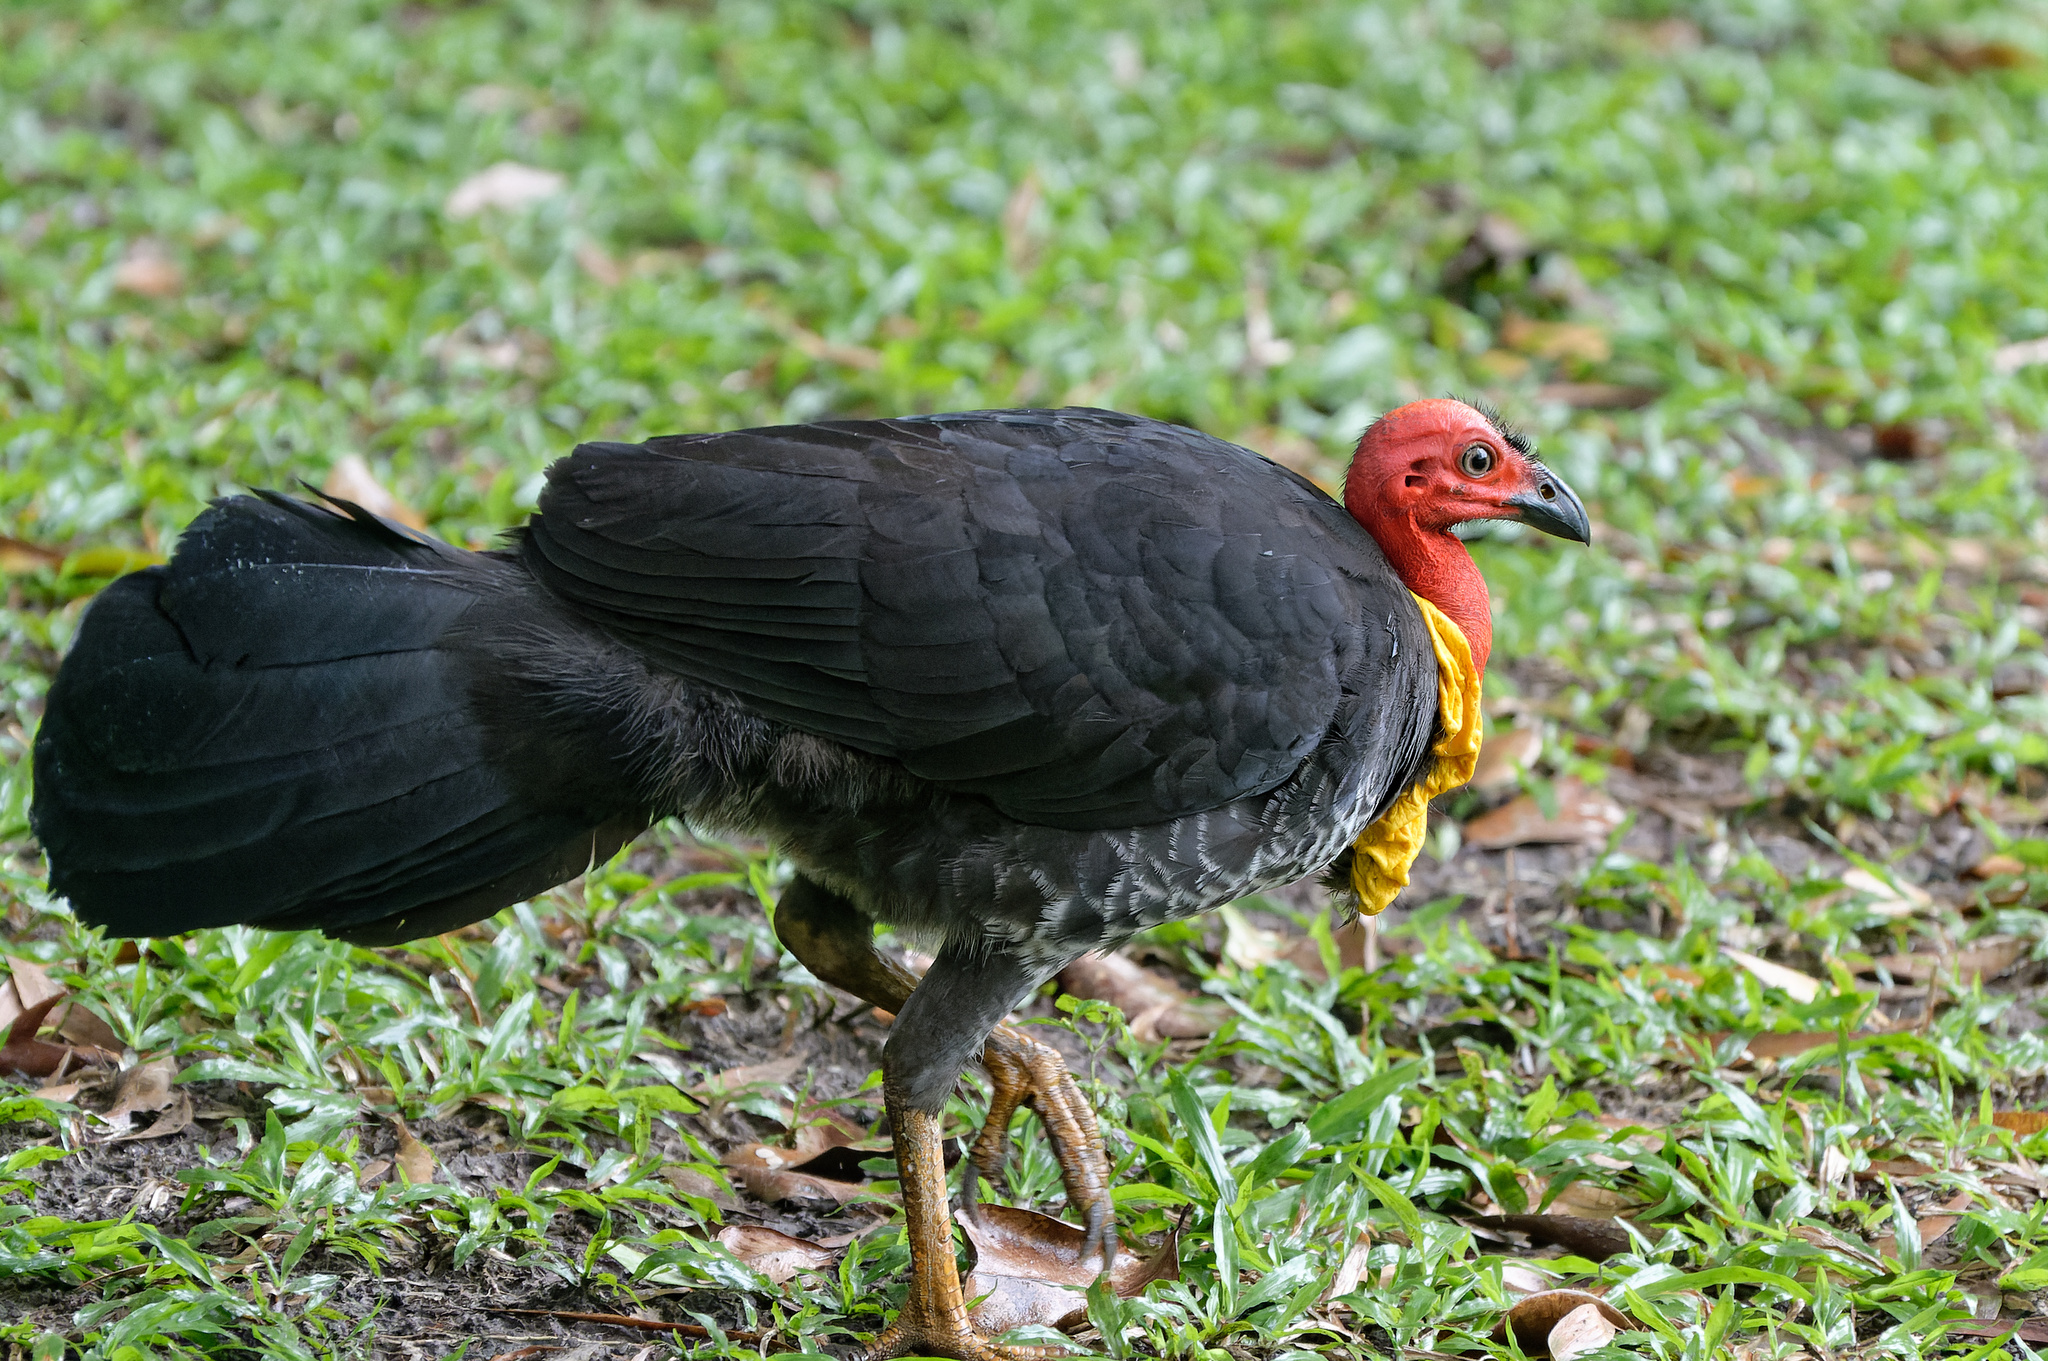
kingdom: Animalia
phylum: Chordata
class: Aves
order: Galliformes
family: Megapodiidae
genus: Alectura
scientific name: Alectura lathami
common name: Australian brushturkey
